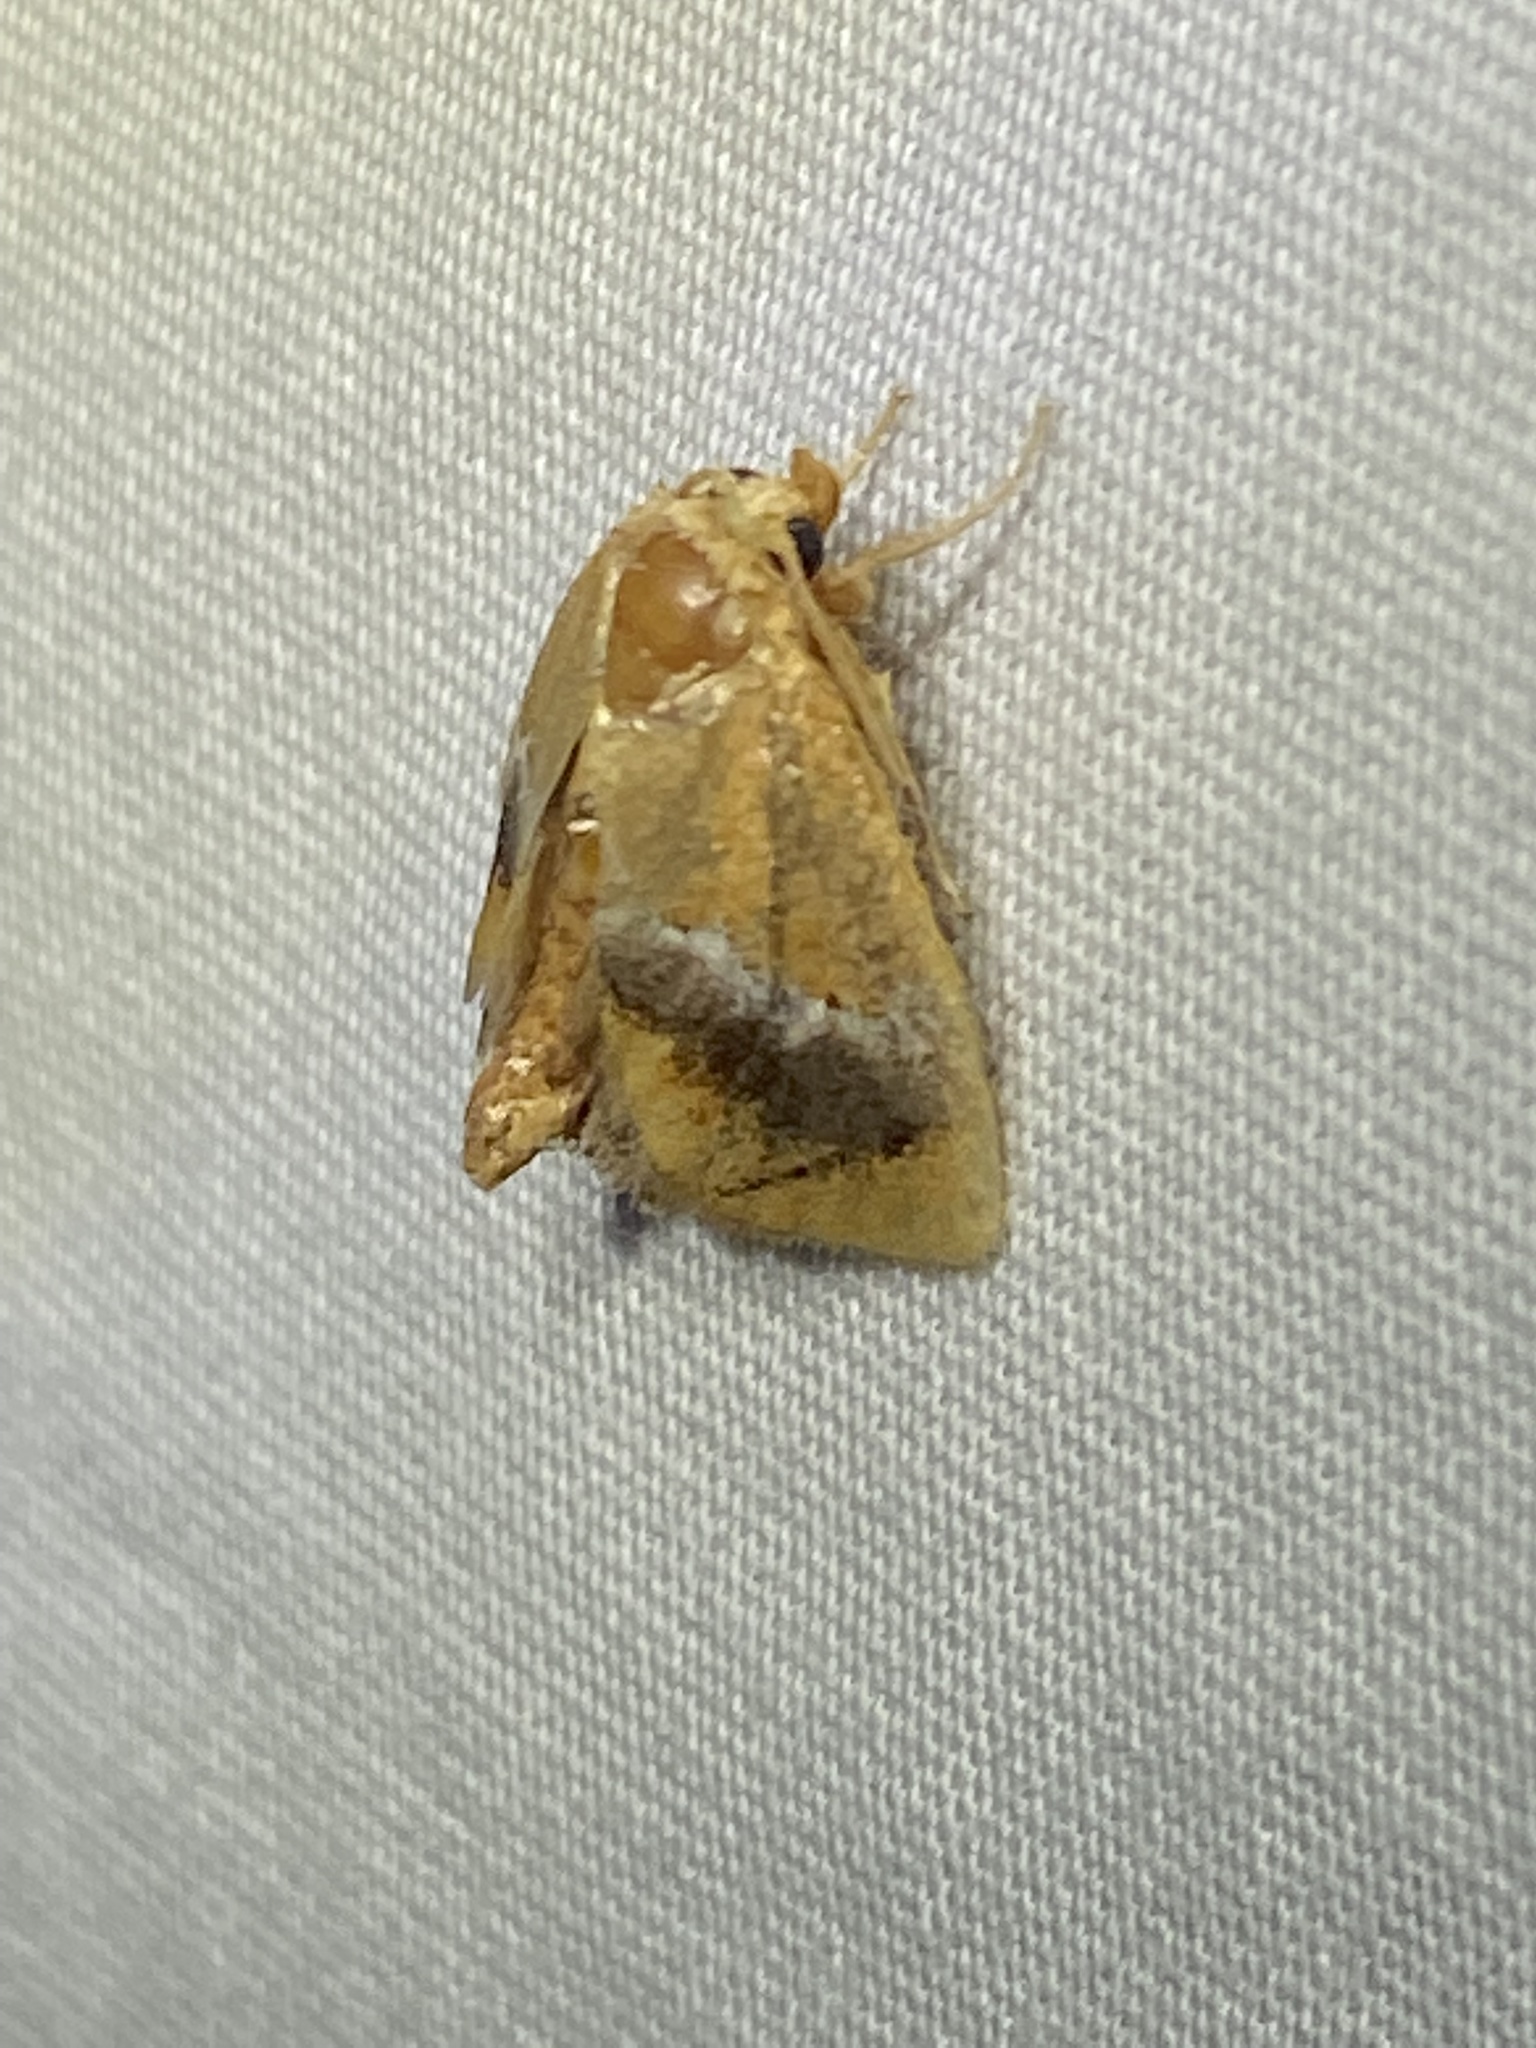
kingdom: Animalia
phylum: Arthropoda
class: Insecta
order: Lepidoptera
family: Limacodidae
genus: Lithacodes
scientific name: Lithacodes fasciola
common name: Yellow-shouldered slug moth
